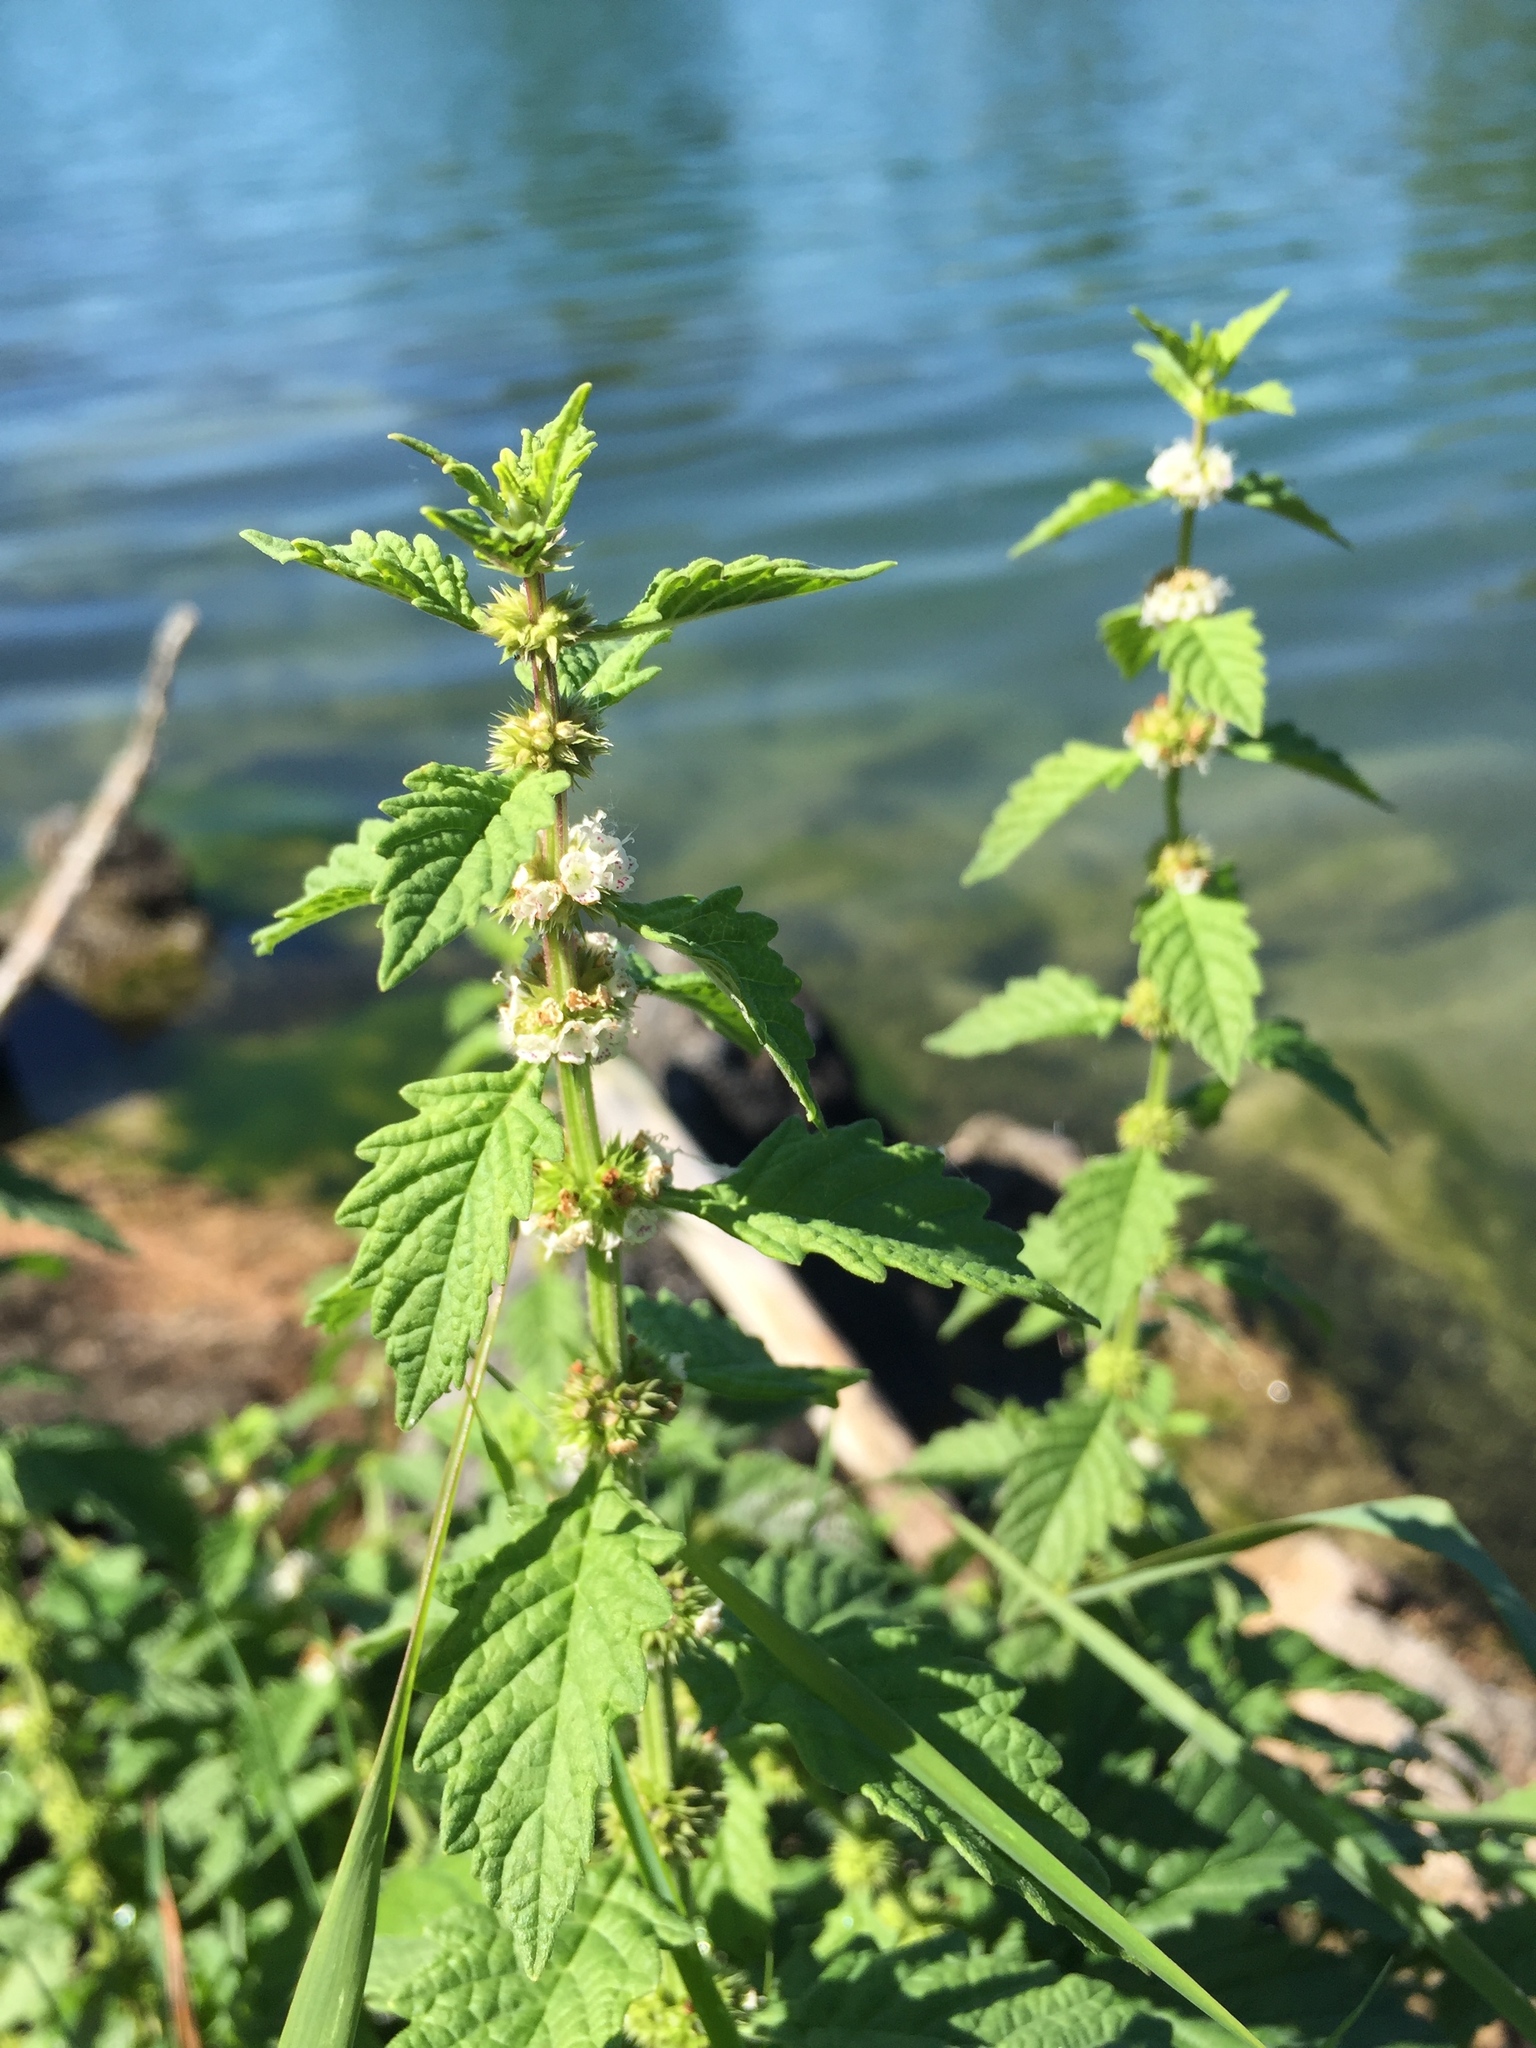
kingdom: Plantae
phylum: Tracheophyta
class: Magnoliopsida
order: Lamiales
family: Lamiaceae
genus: Lycopus
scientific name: Lycopus europaeus
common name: European bugleweed
